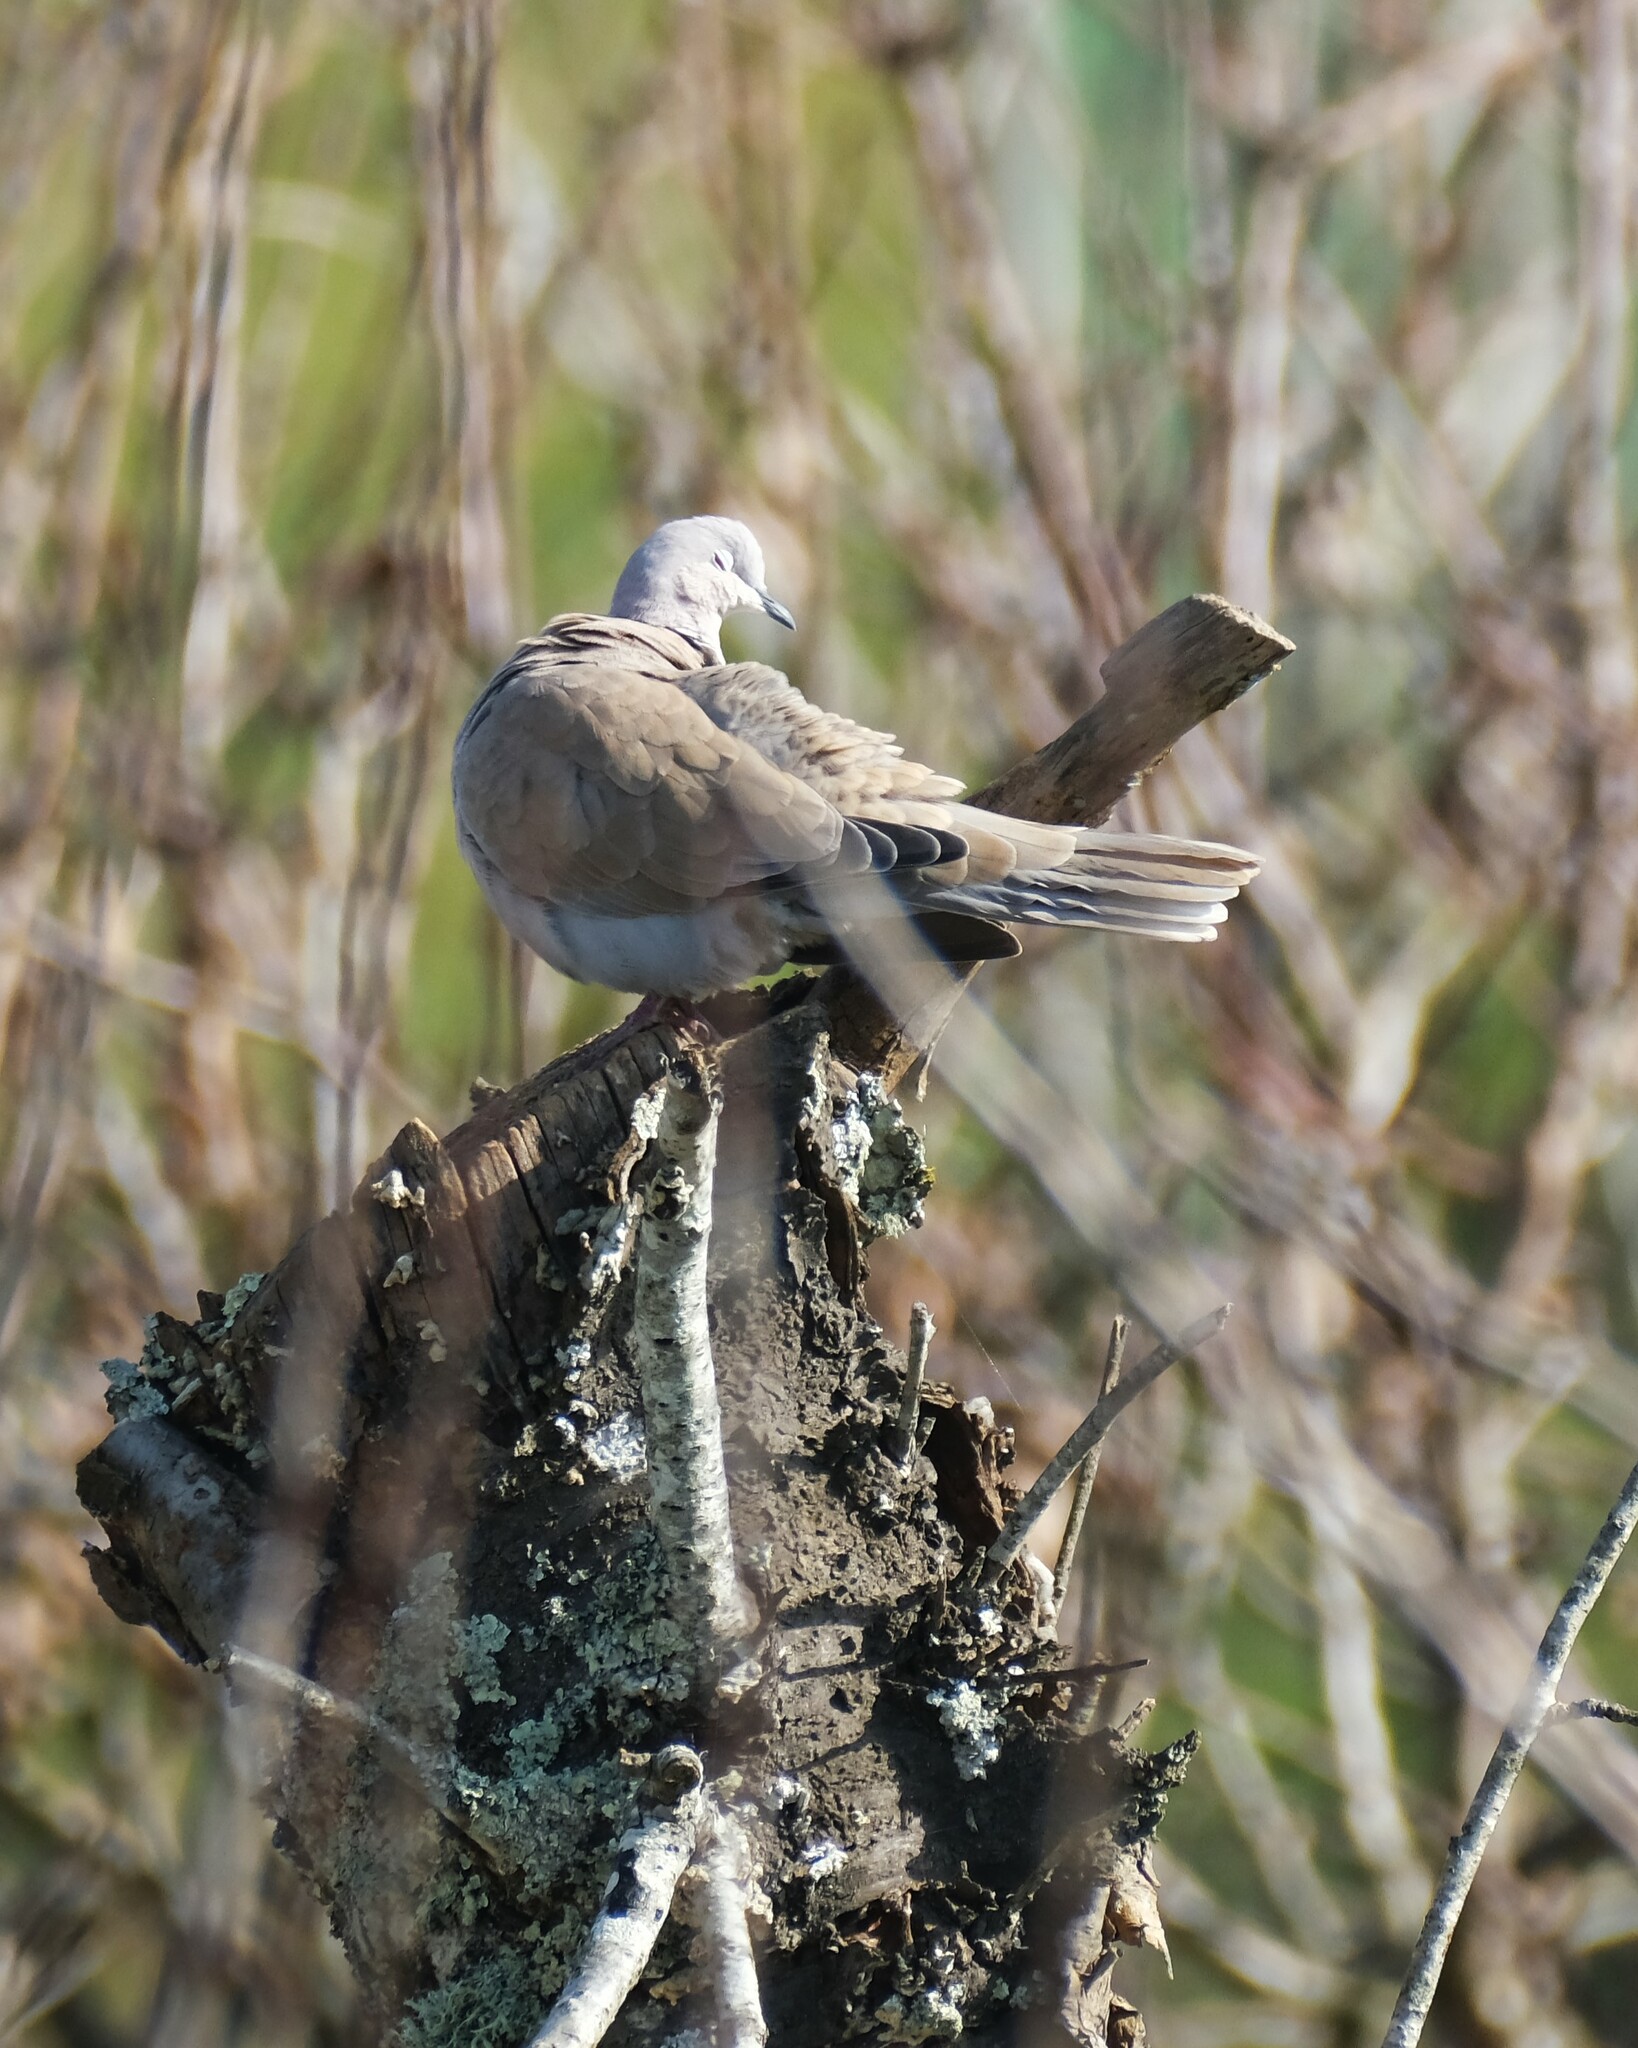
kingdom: Animalia
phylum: Chordata
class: Aves
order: Columbiformes
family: Columbidae
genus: Streptopelia
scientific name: Streptopelia decaocto
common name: Eurasian collared dove
